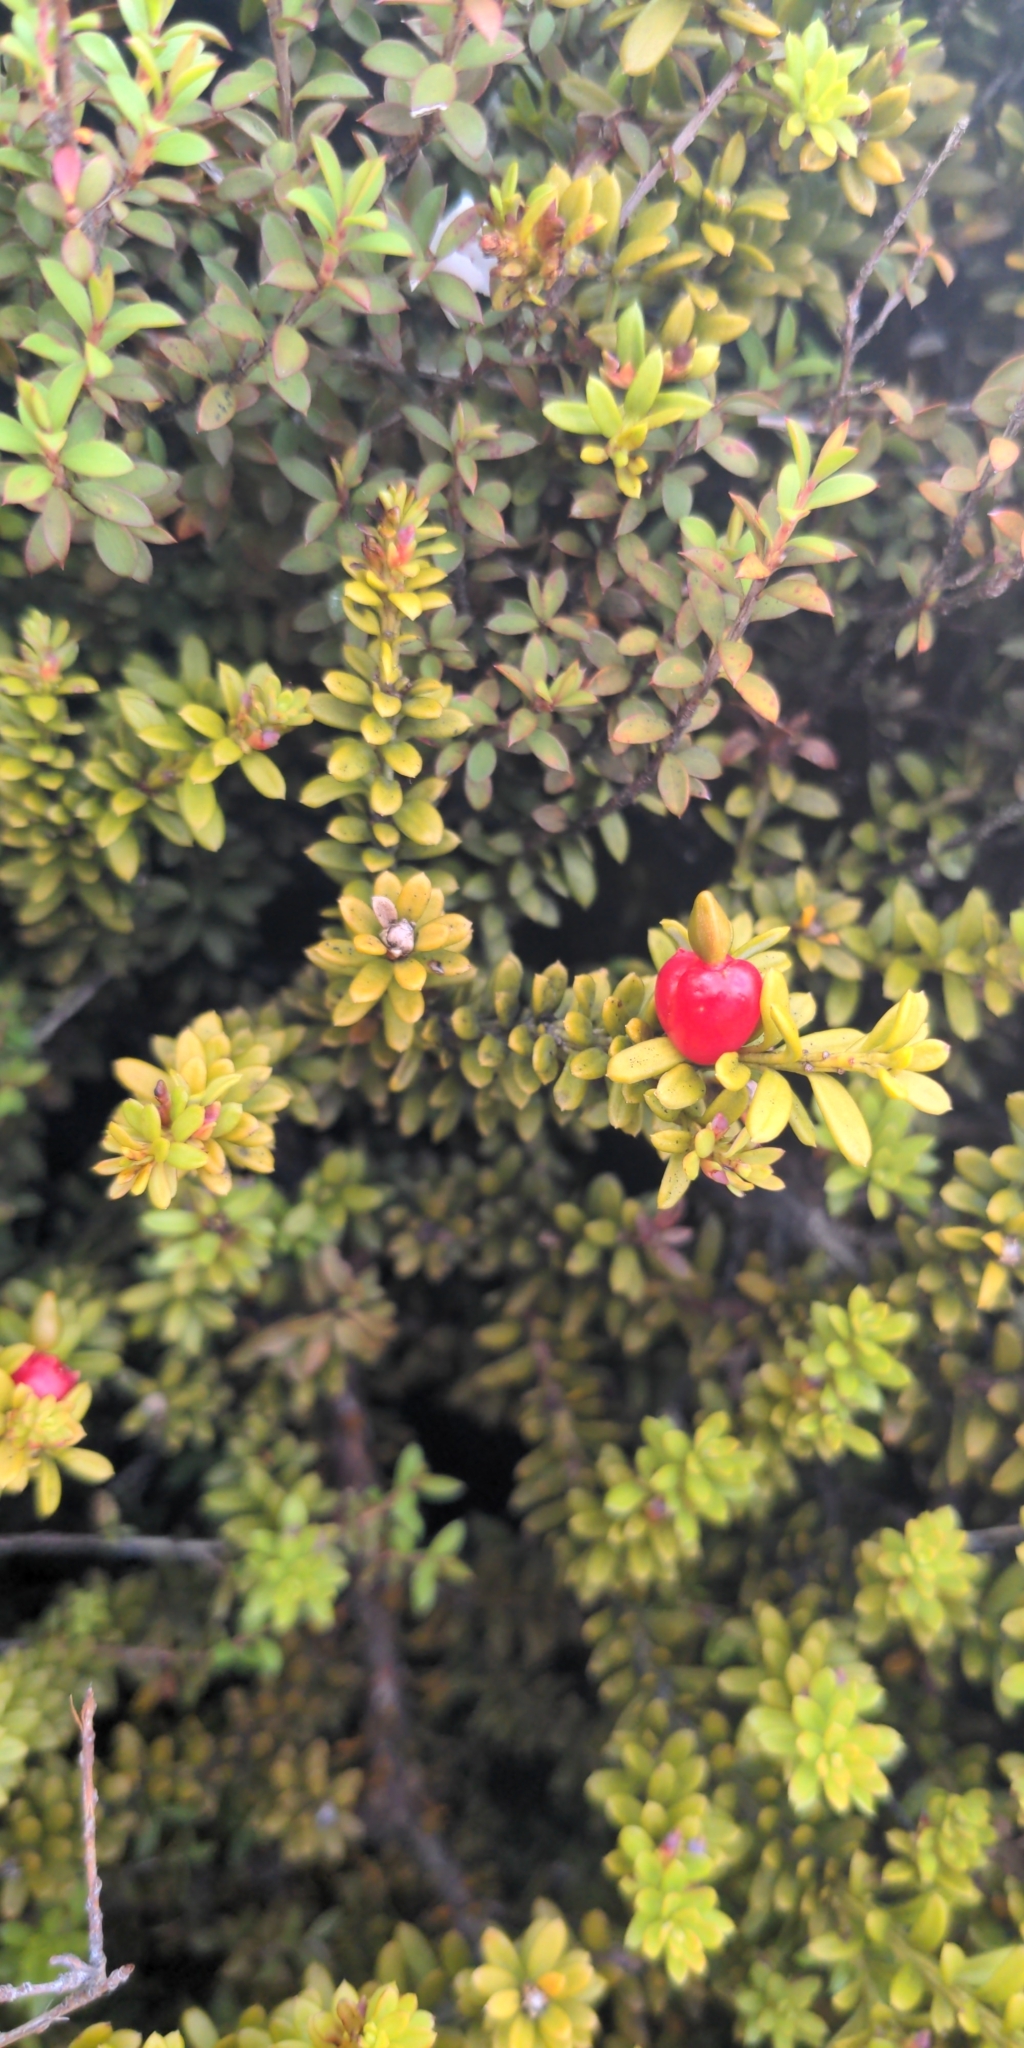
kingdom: Plantae
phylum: Tracheophyta
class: Pinopsida
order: Pinales
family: Podocarpaceae
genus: Podocarpus
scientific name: Podocarpus nivalis
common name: Alpine totara
